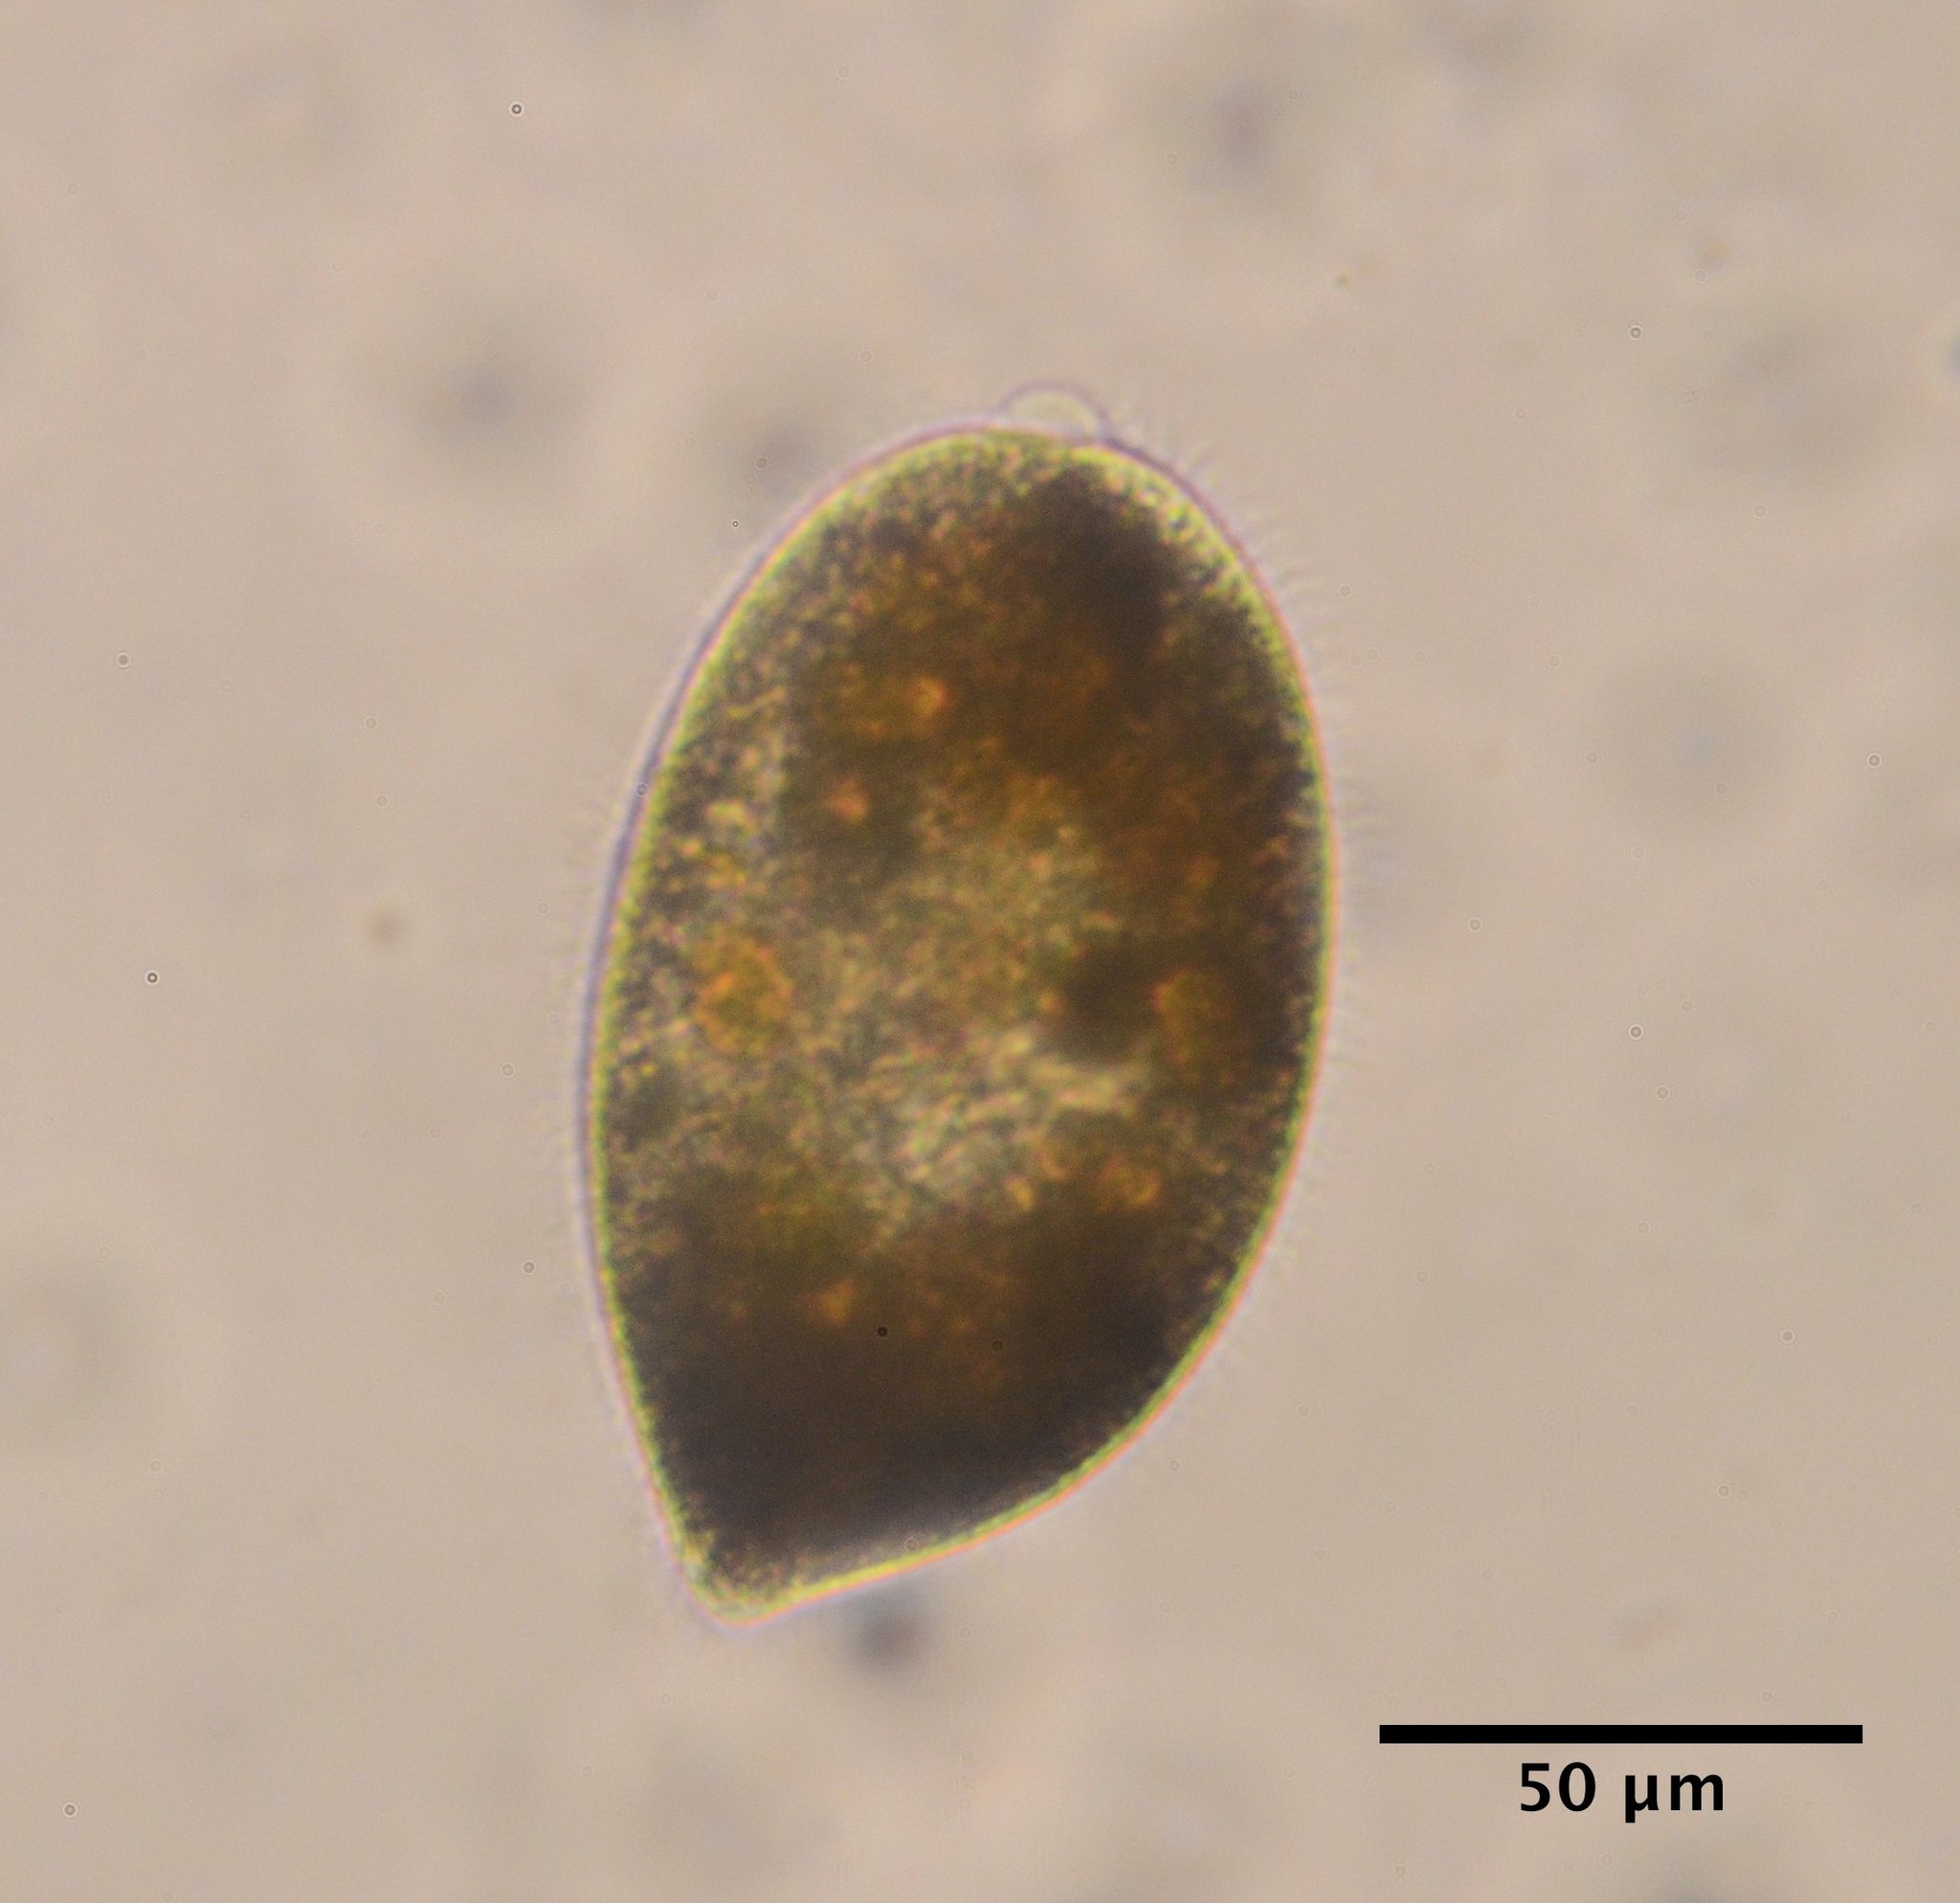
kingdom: Chromista
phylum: Ciliophora
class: Oligohymenophorea
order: Hymenostomatida
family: Frontoniidae
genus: Frontonia
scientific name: Frontonia atra
